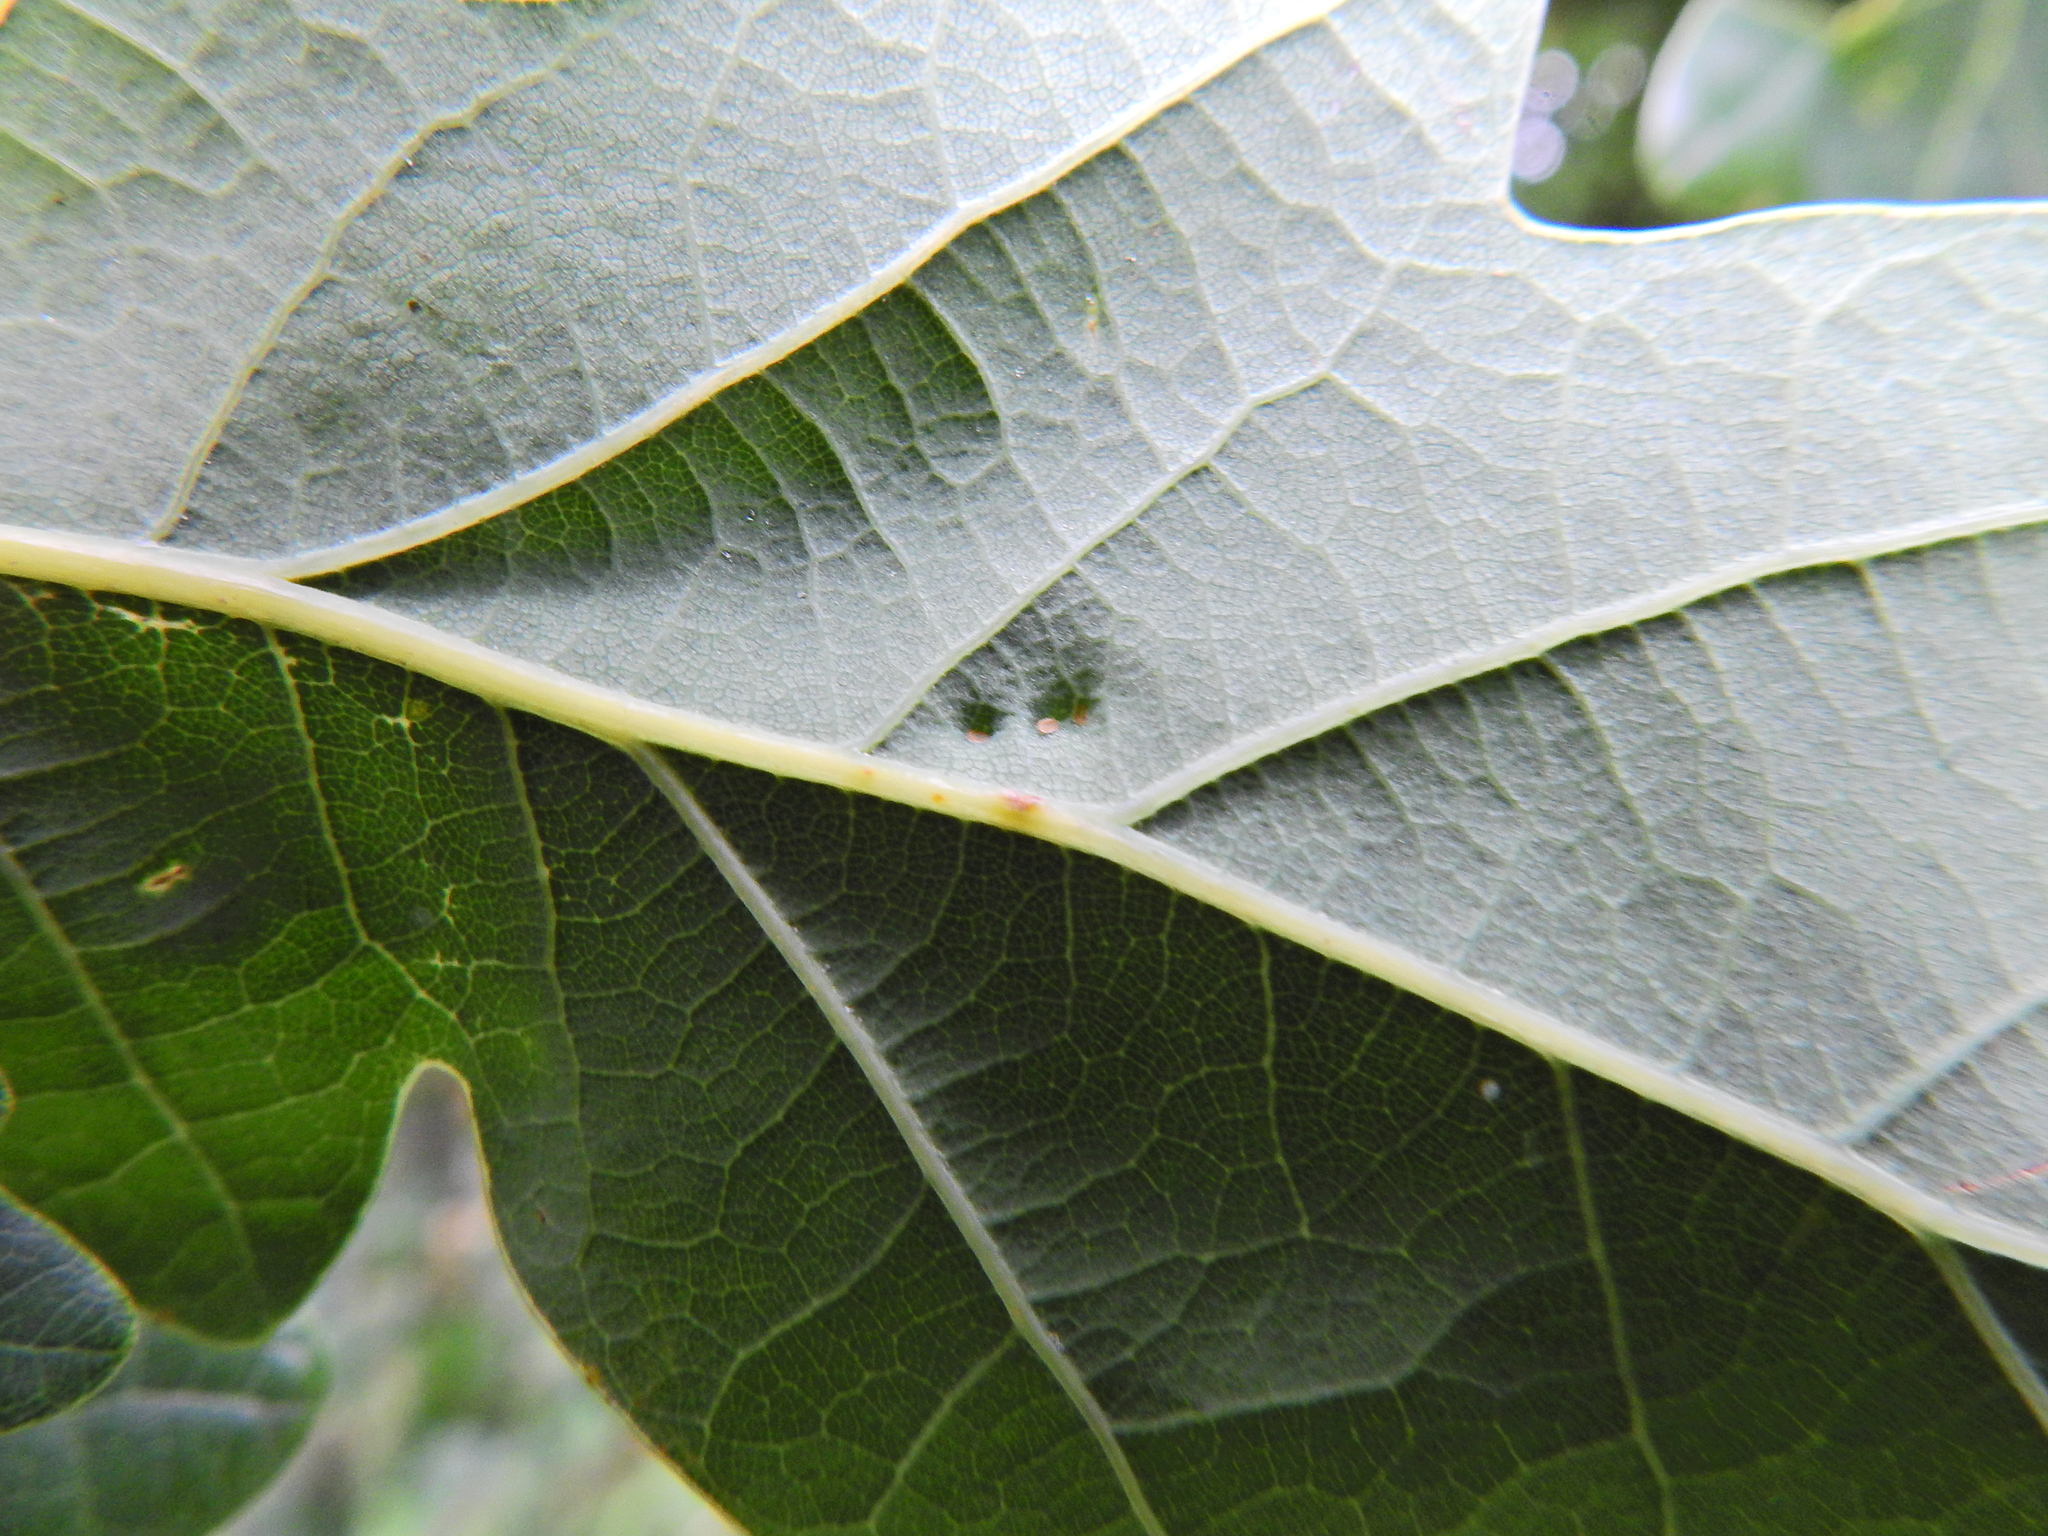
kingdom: Animalia
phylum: Arthropoda
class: Insecta
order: Hemiptera
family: Triozidae
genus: Trioza
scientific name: Trioza remota
